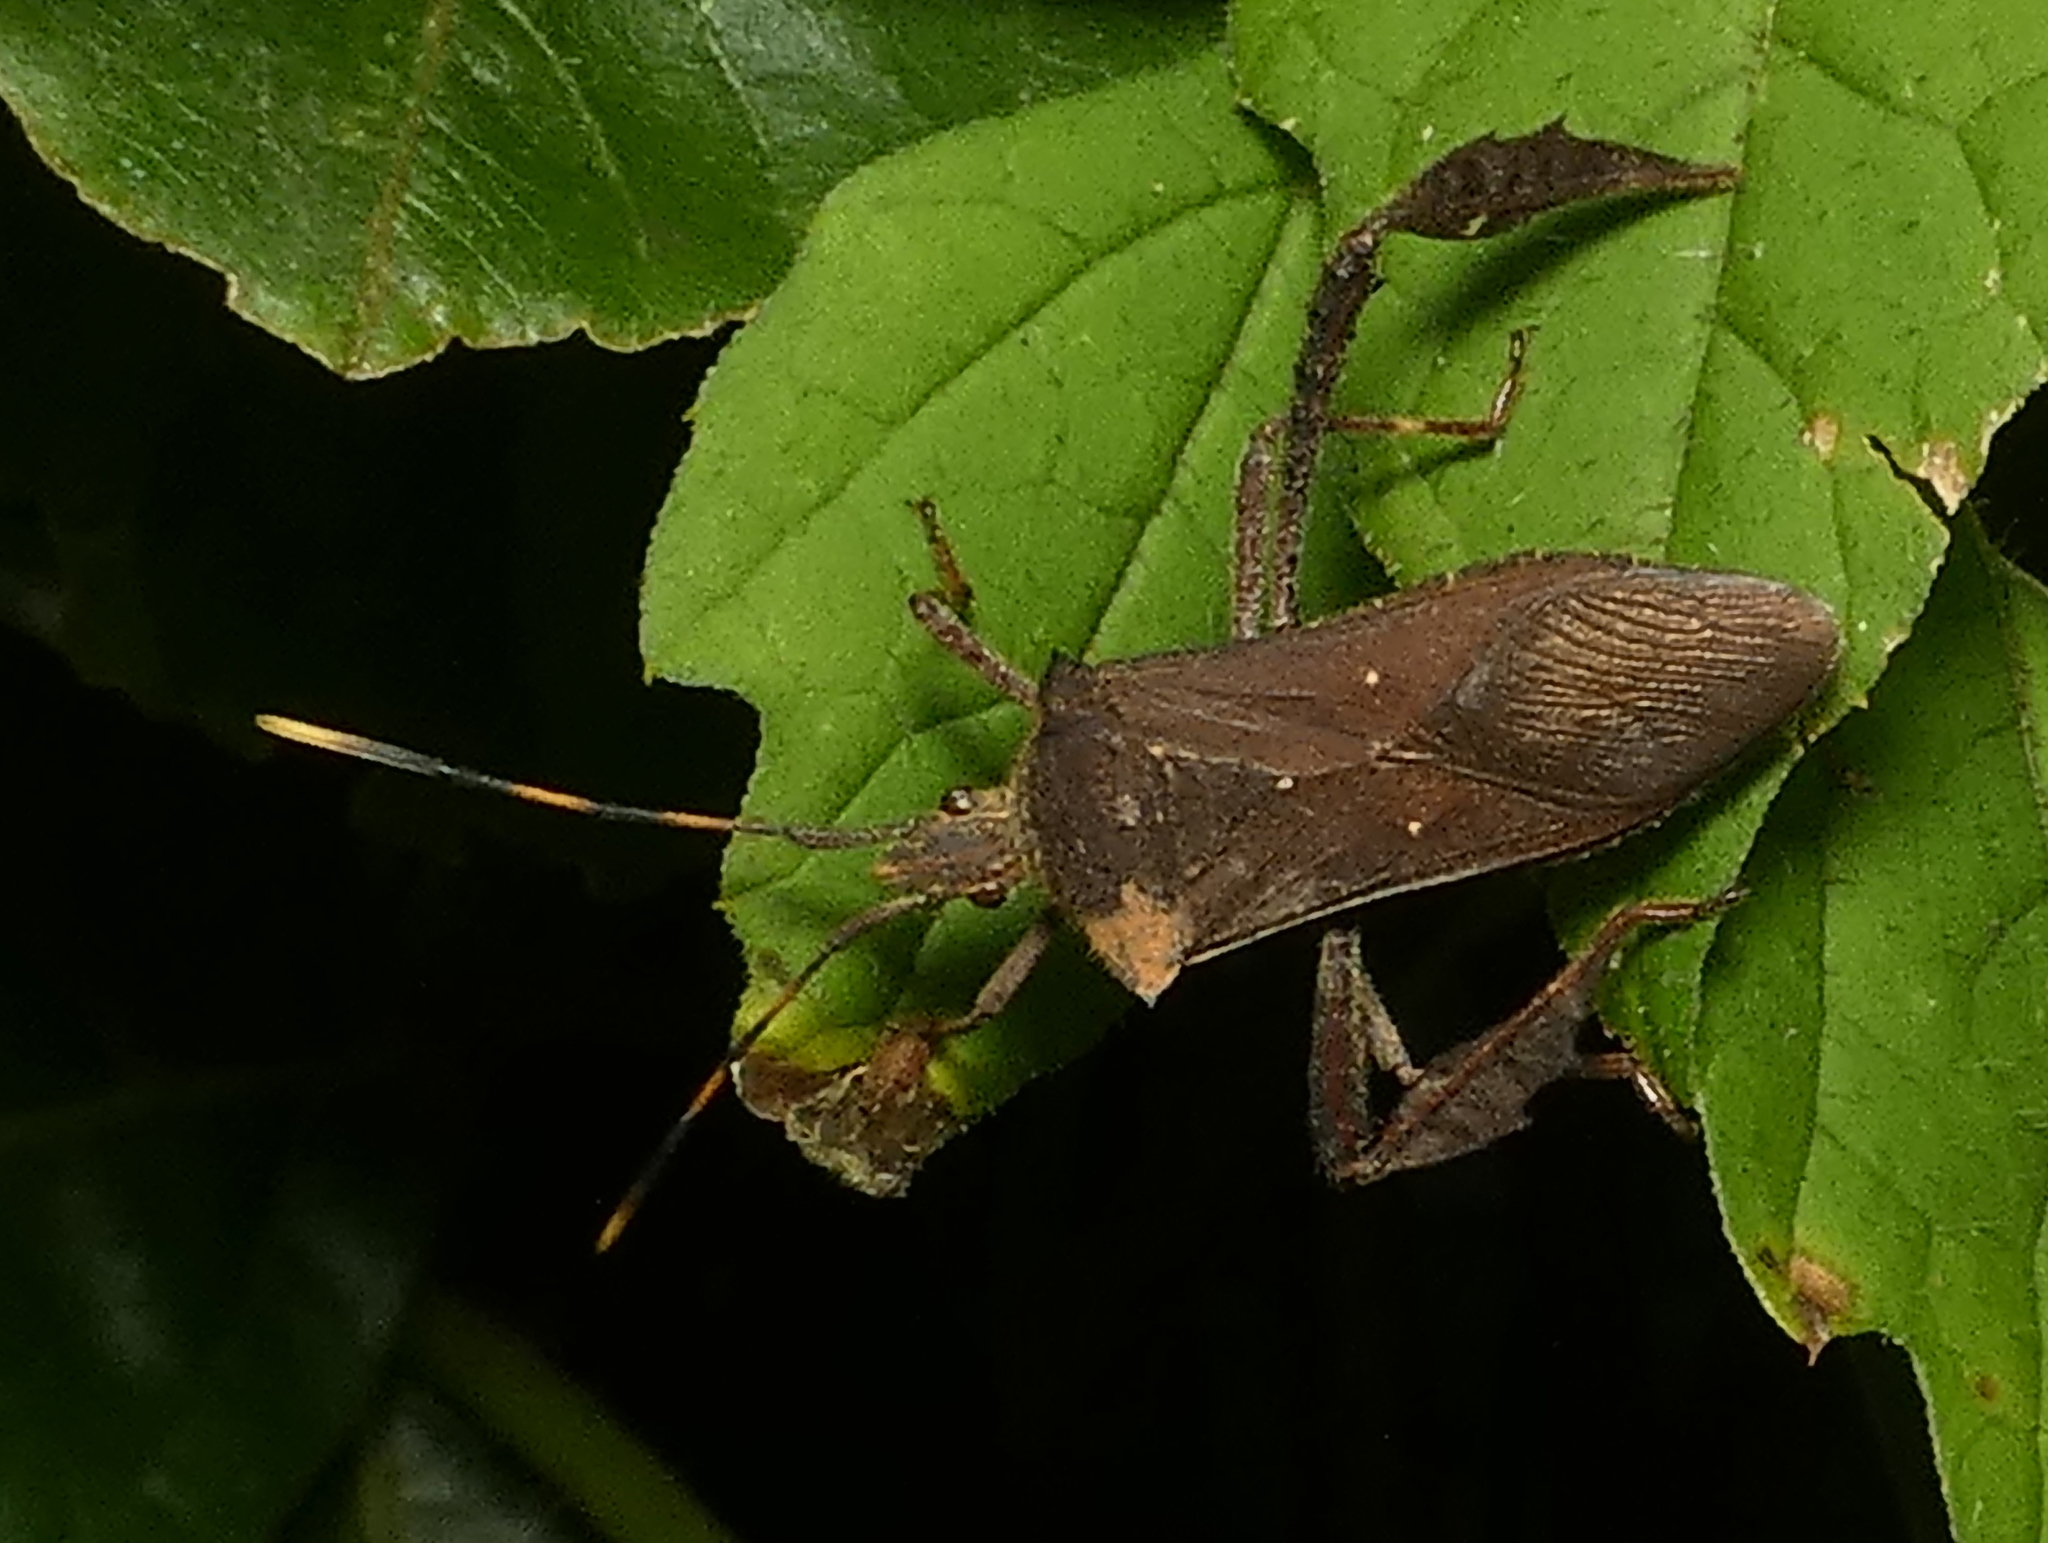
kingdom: Animalia
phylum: Arthropoda
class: Insecta
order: Hemiptera
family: Coreidae
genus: Leptoglossus
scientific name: Leptoglossus gonagra
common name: Citron bug
